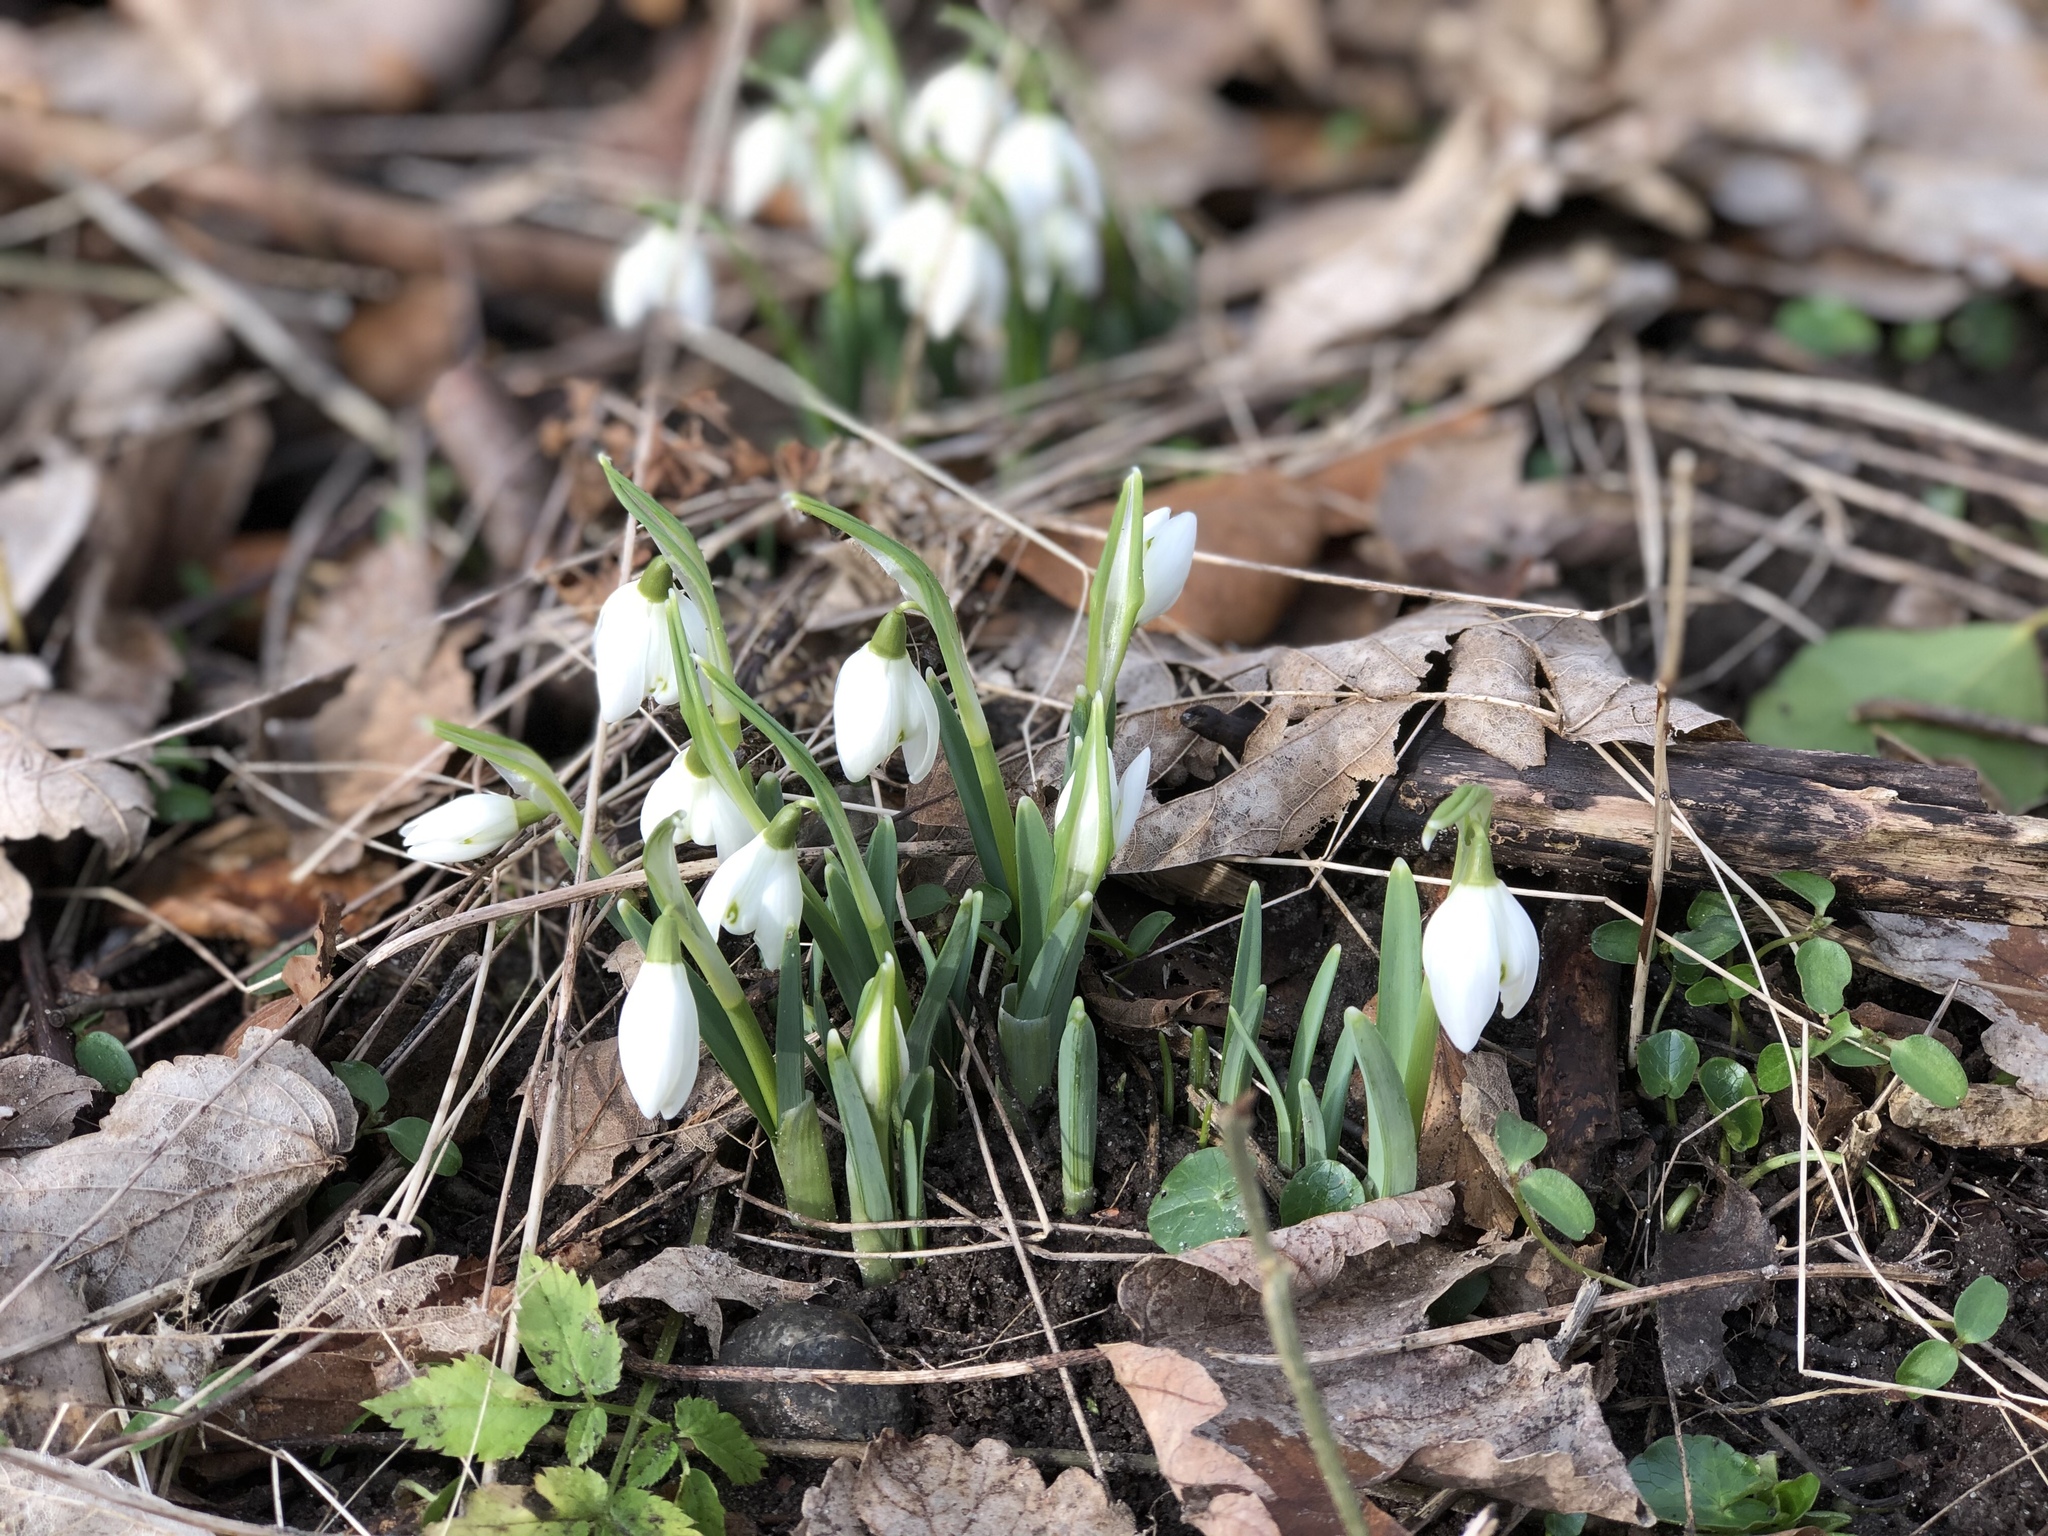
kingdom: Plantae
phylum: Tracheophyta
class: Liliopsida
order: Asparagales
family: Amaryllidaceae
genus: Galanthus
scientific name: Galanthus nivalis
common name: Snowdrop
